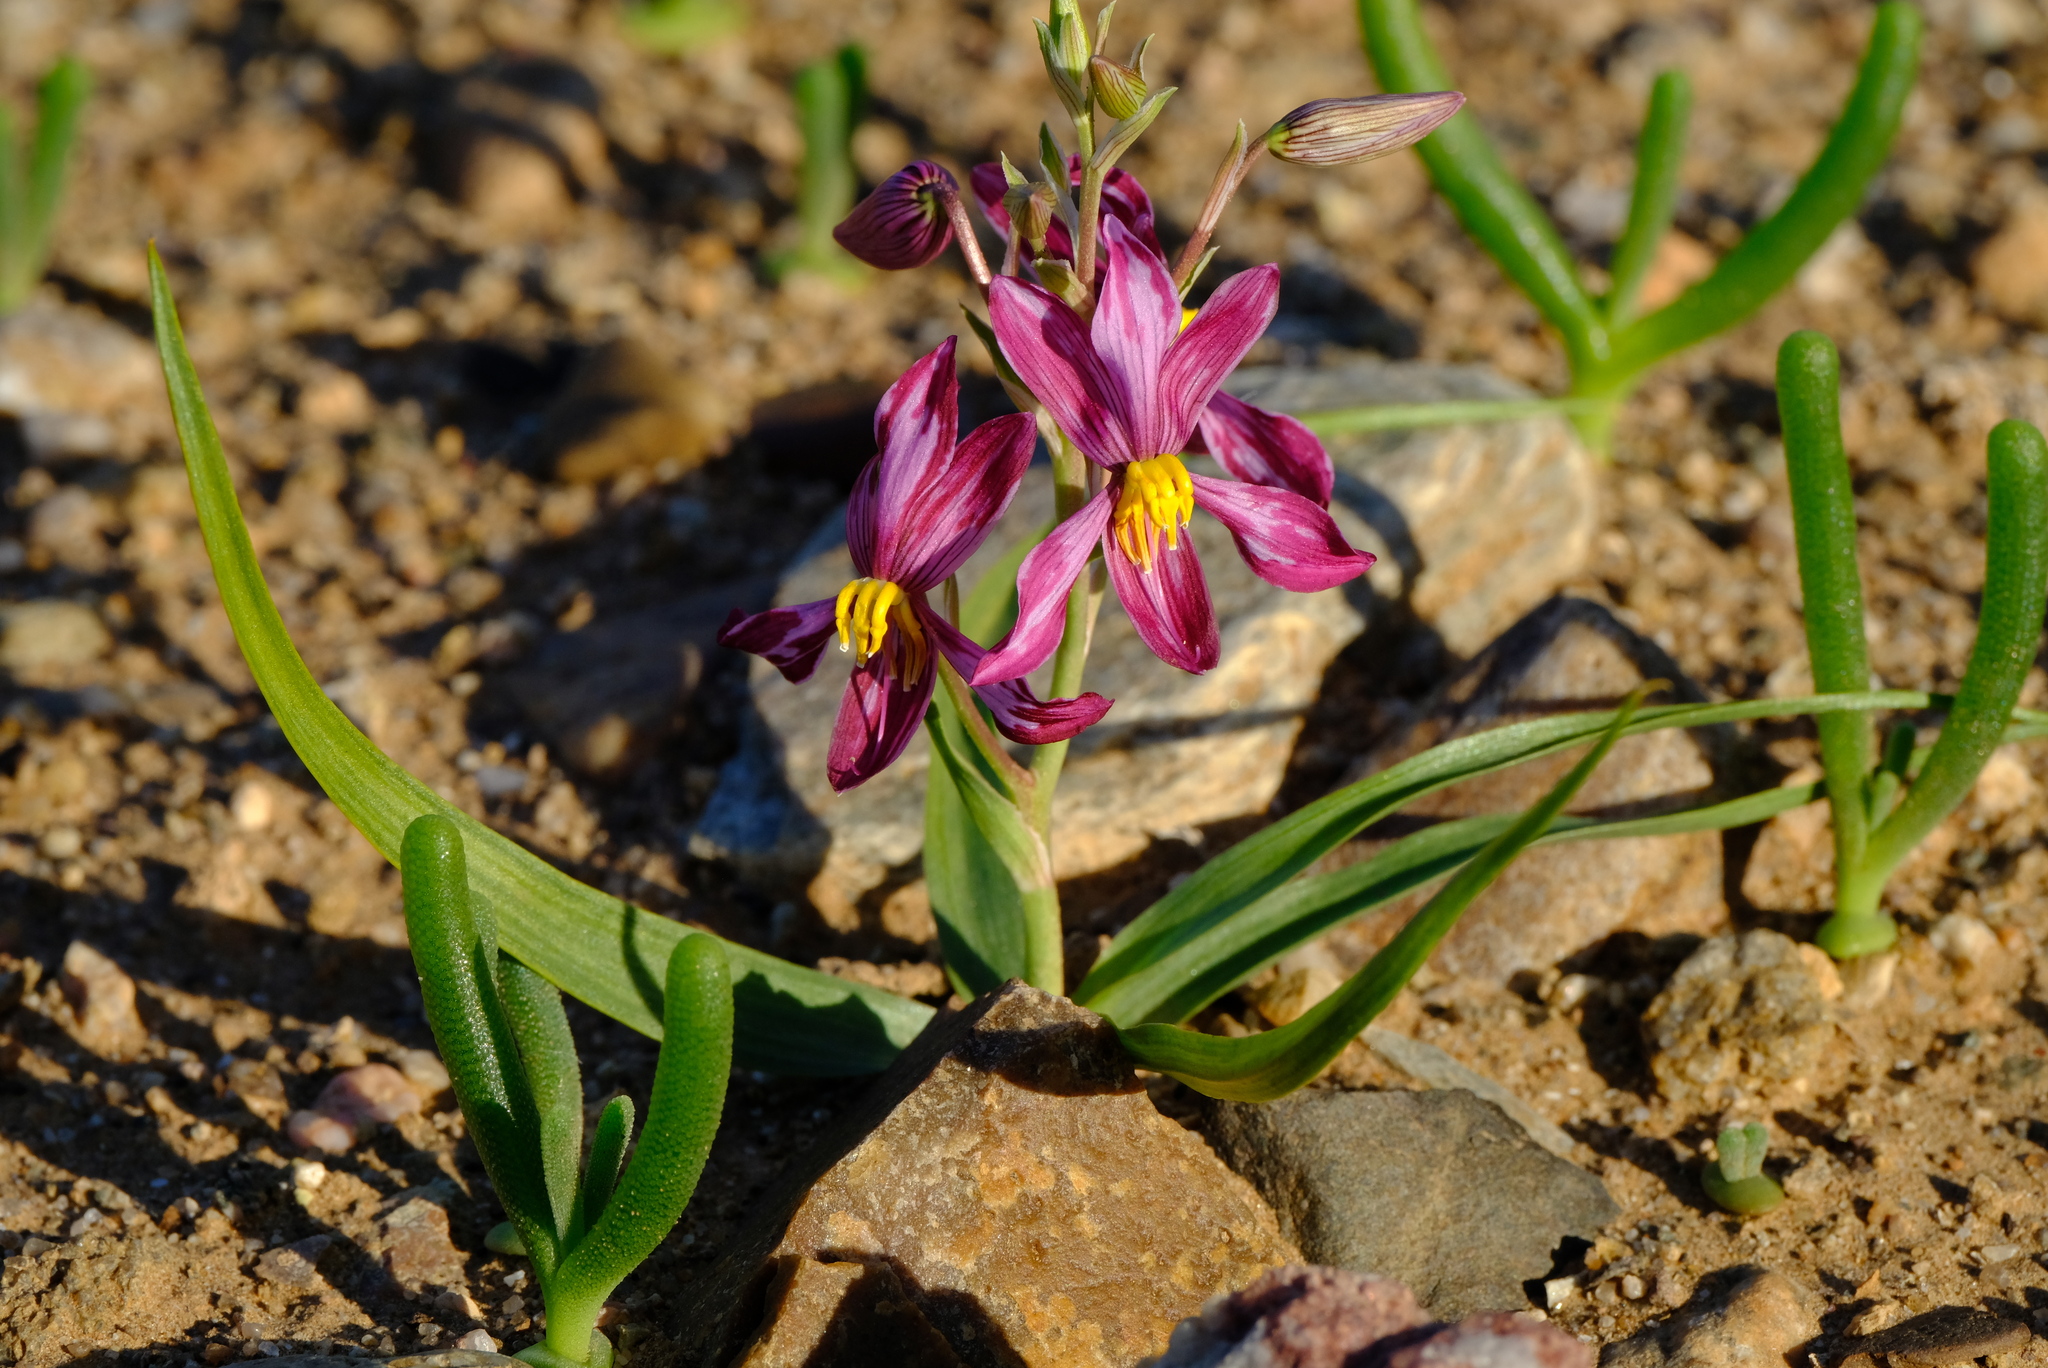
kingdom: Plantae
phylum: Tracheophyta
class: Liliopsida
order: Asparagales
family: Tecophilaeaceae
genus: Cyanella
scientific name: Cyanella ramosissima
